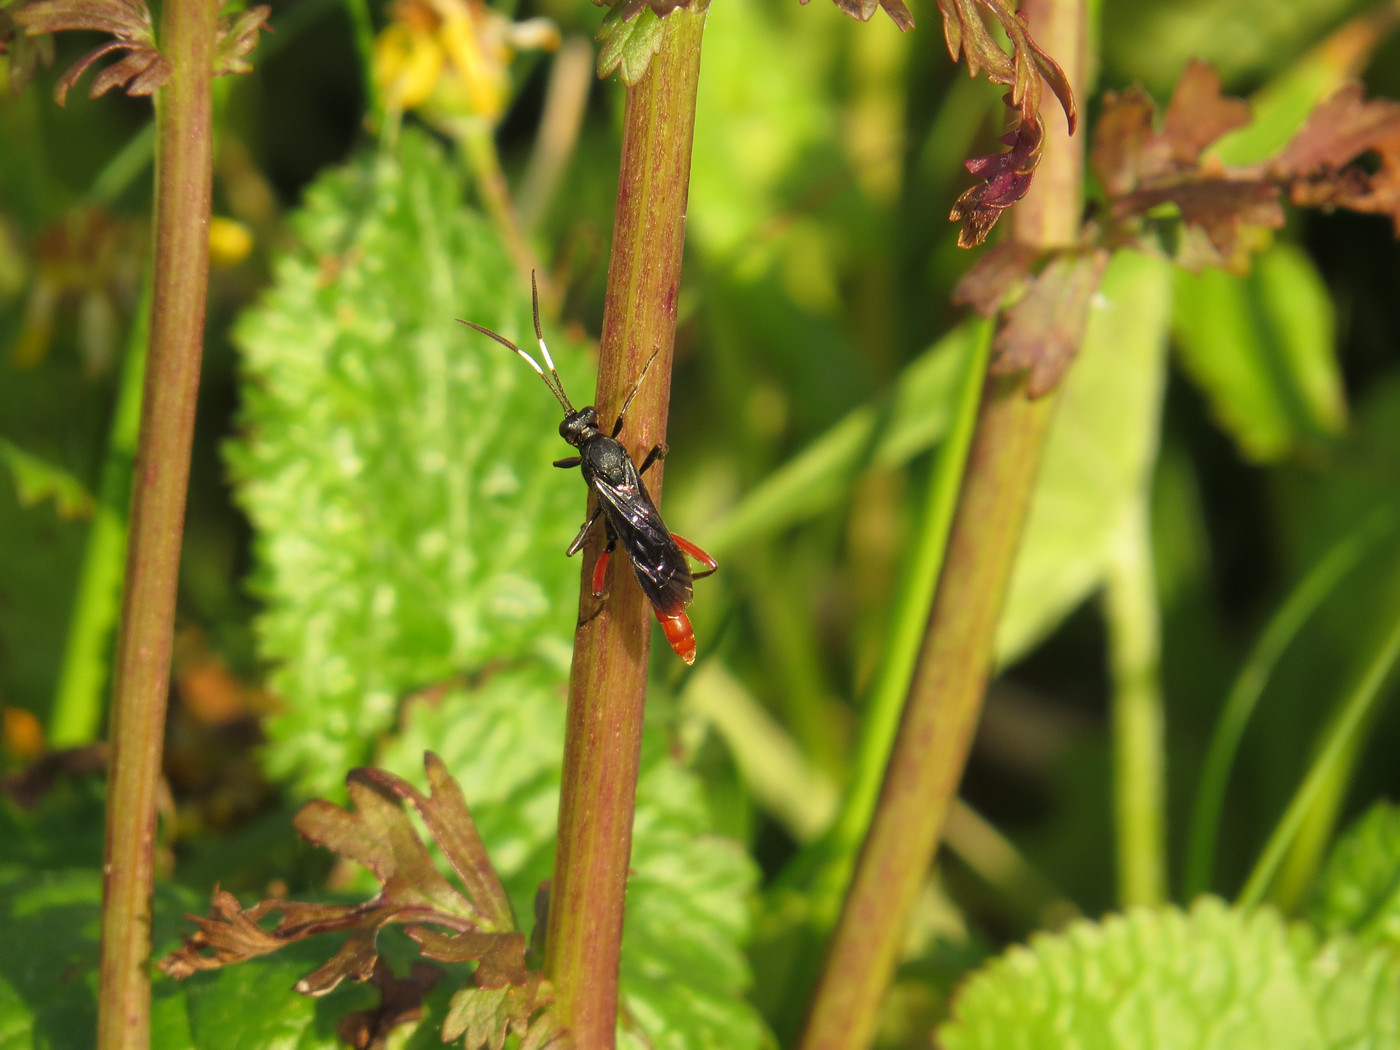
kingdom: Animalia
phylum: Arthropoda
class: Insecta
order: Hymenoptera
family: Ichneumonidae
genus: Limonethe
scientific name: Limonethe maurator
